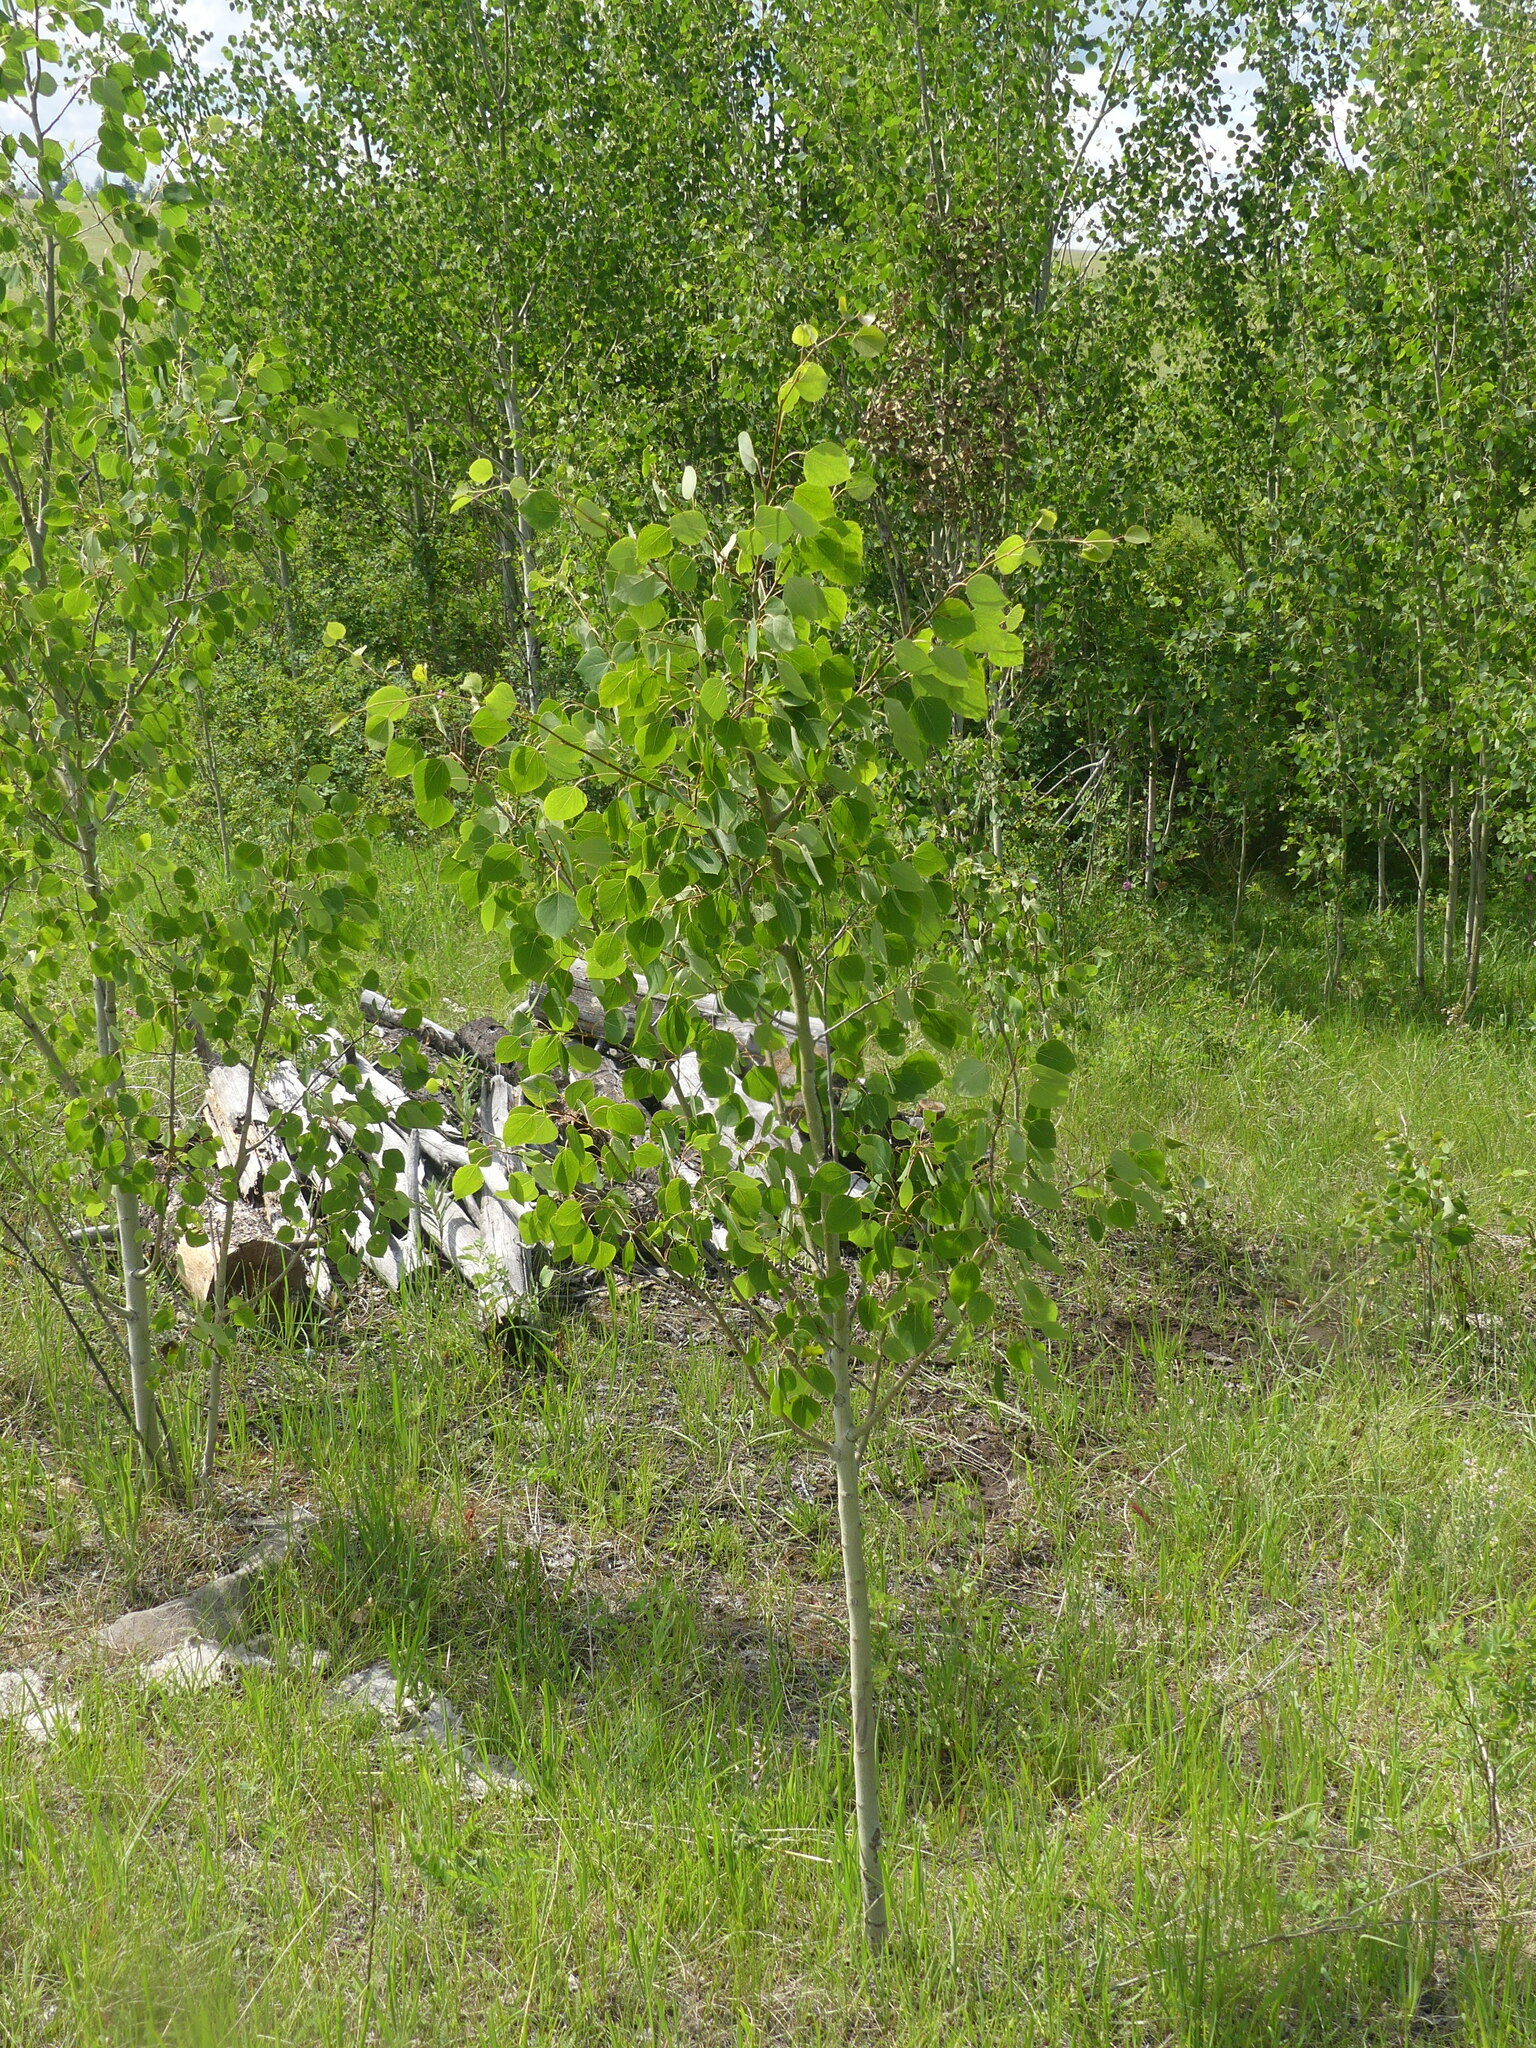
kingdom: Plantae
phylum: Tracheophyta
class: Magnoliopsida
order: Malpighiales
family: Salicaceae
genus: Populus
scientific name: Populus tremuloides
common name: Quaking aspen
